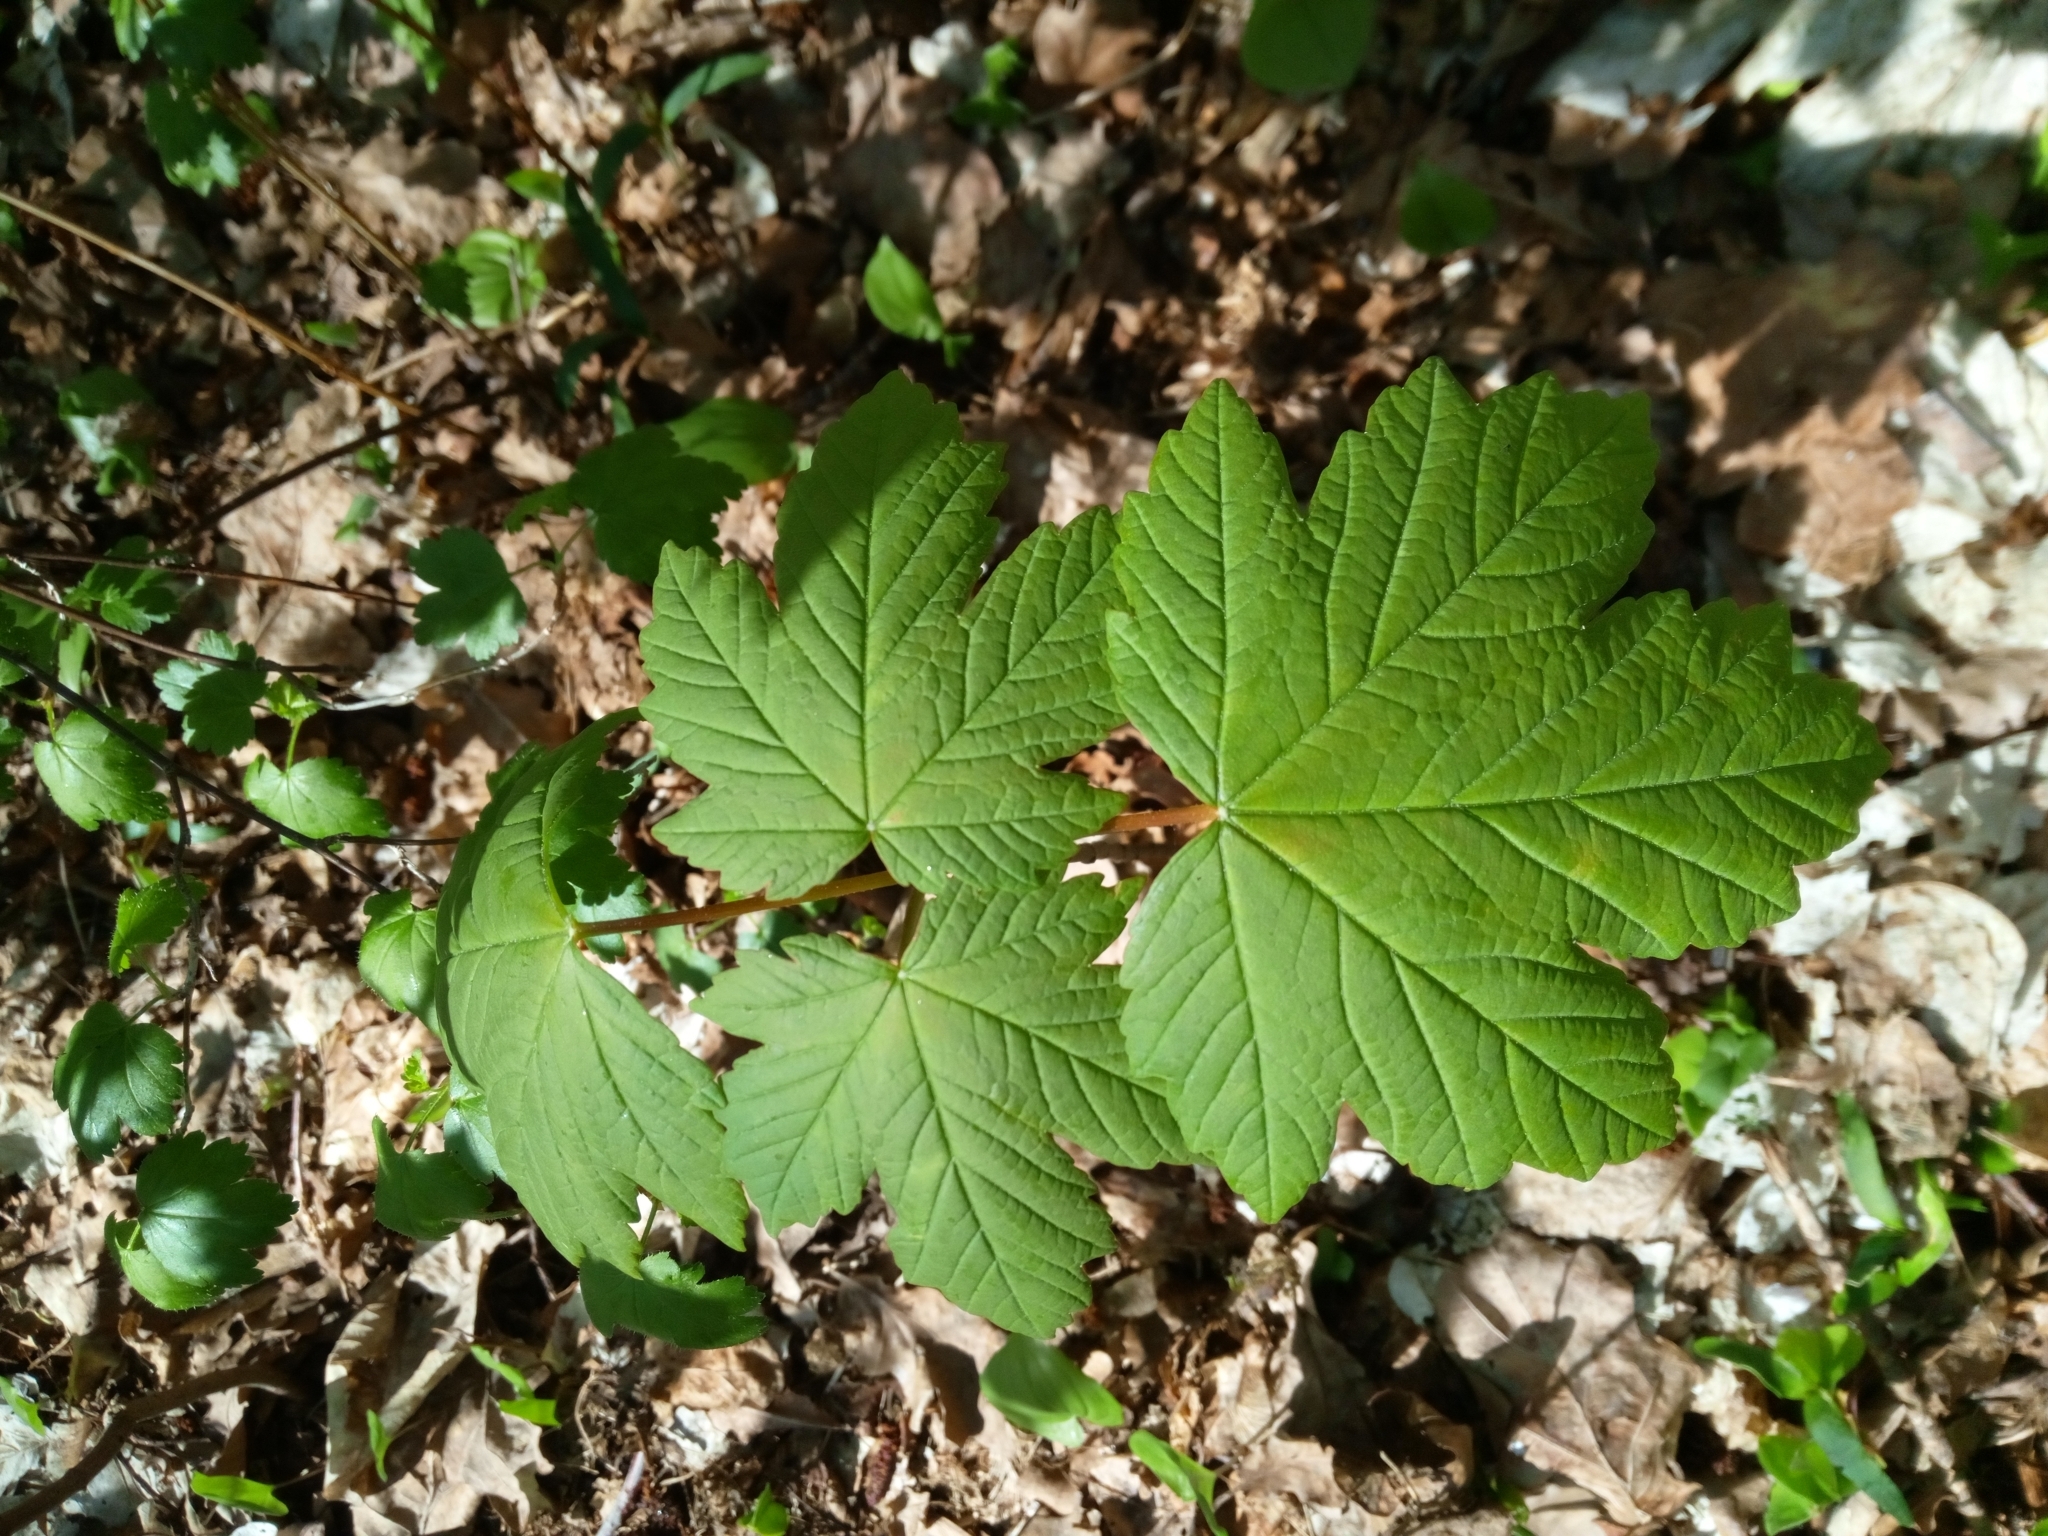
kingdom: Plantae
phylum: Tracheophyta
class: Magnoliopsida
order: Sapindales
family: Sapindaceae
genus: Acer
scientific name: Acer pseudoplatanus
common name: Sycamore
